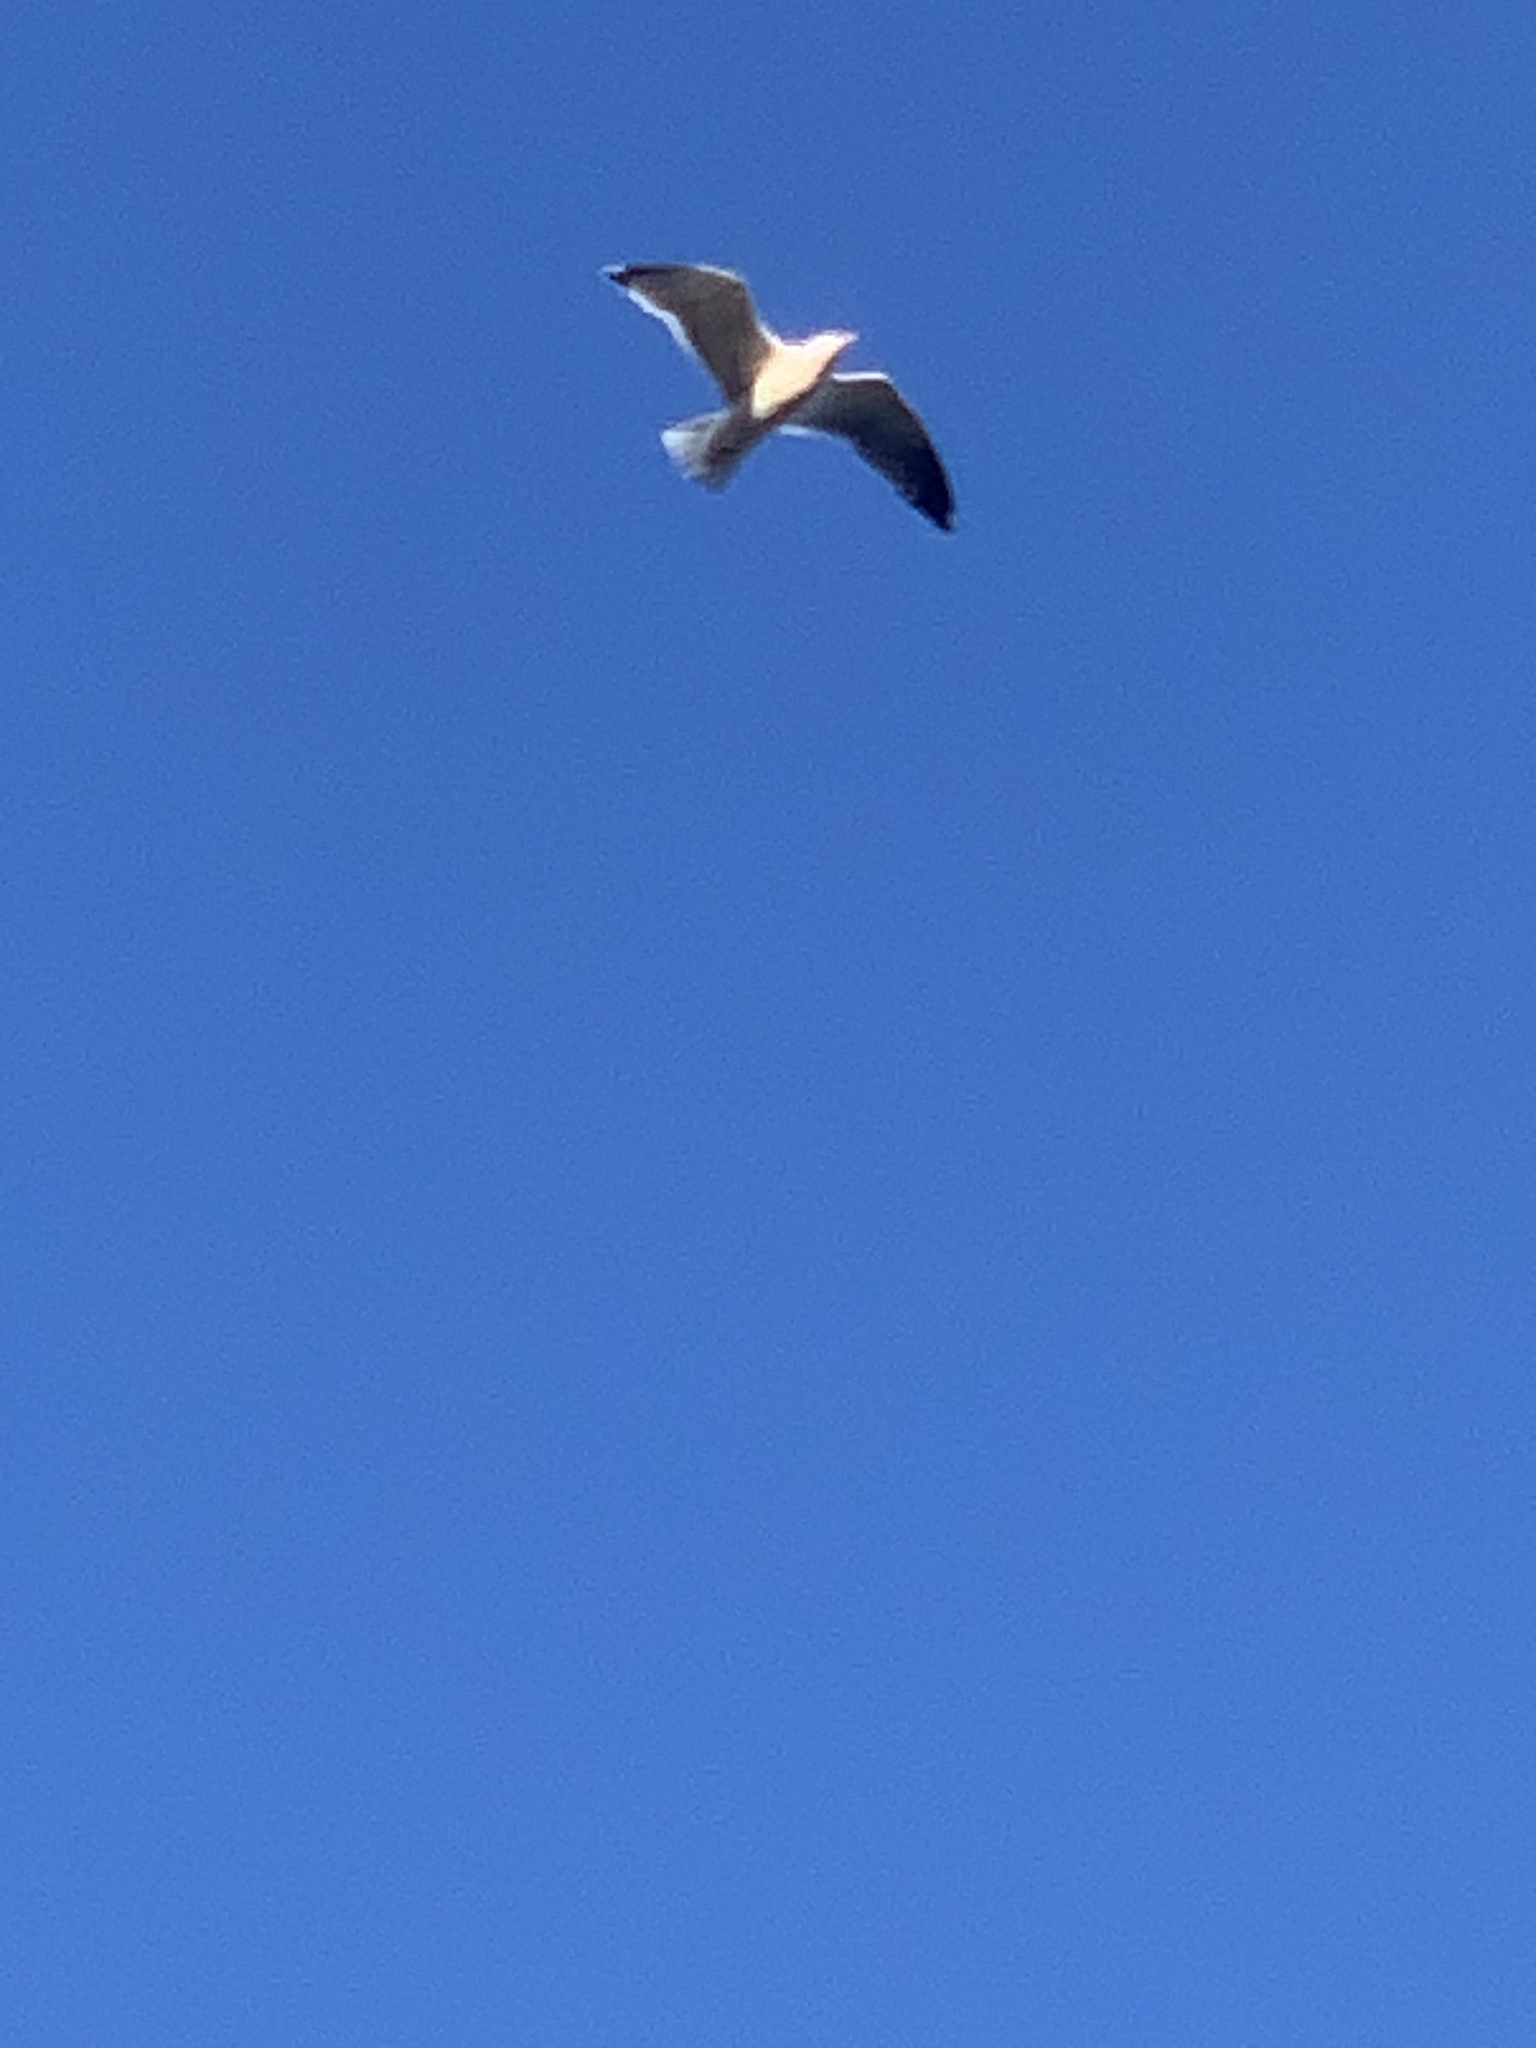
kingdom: Animalia
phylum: Chordata
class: Aves
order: Charadriiformes
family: Laridae
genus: Larus
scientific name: Larus
